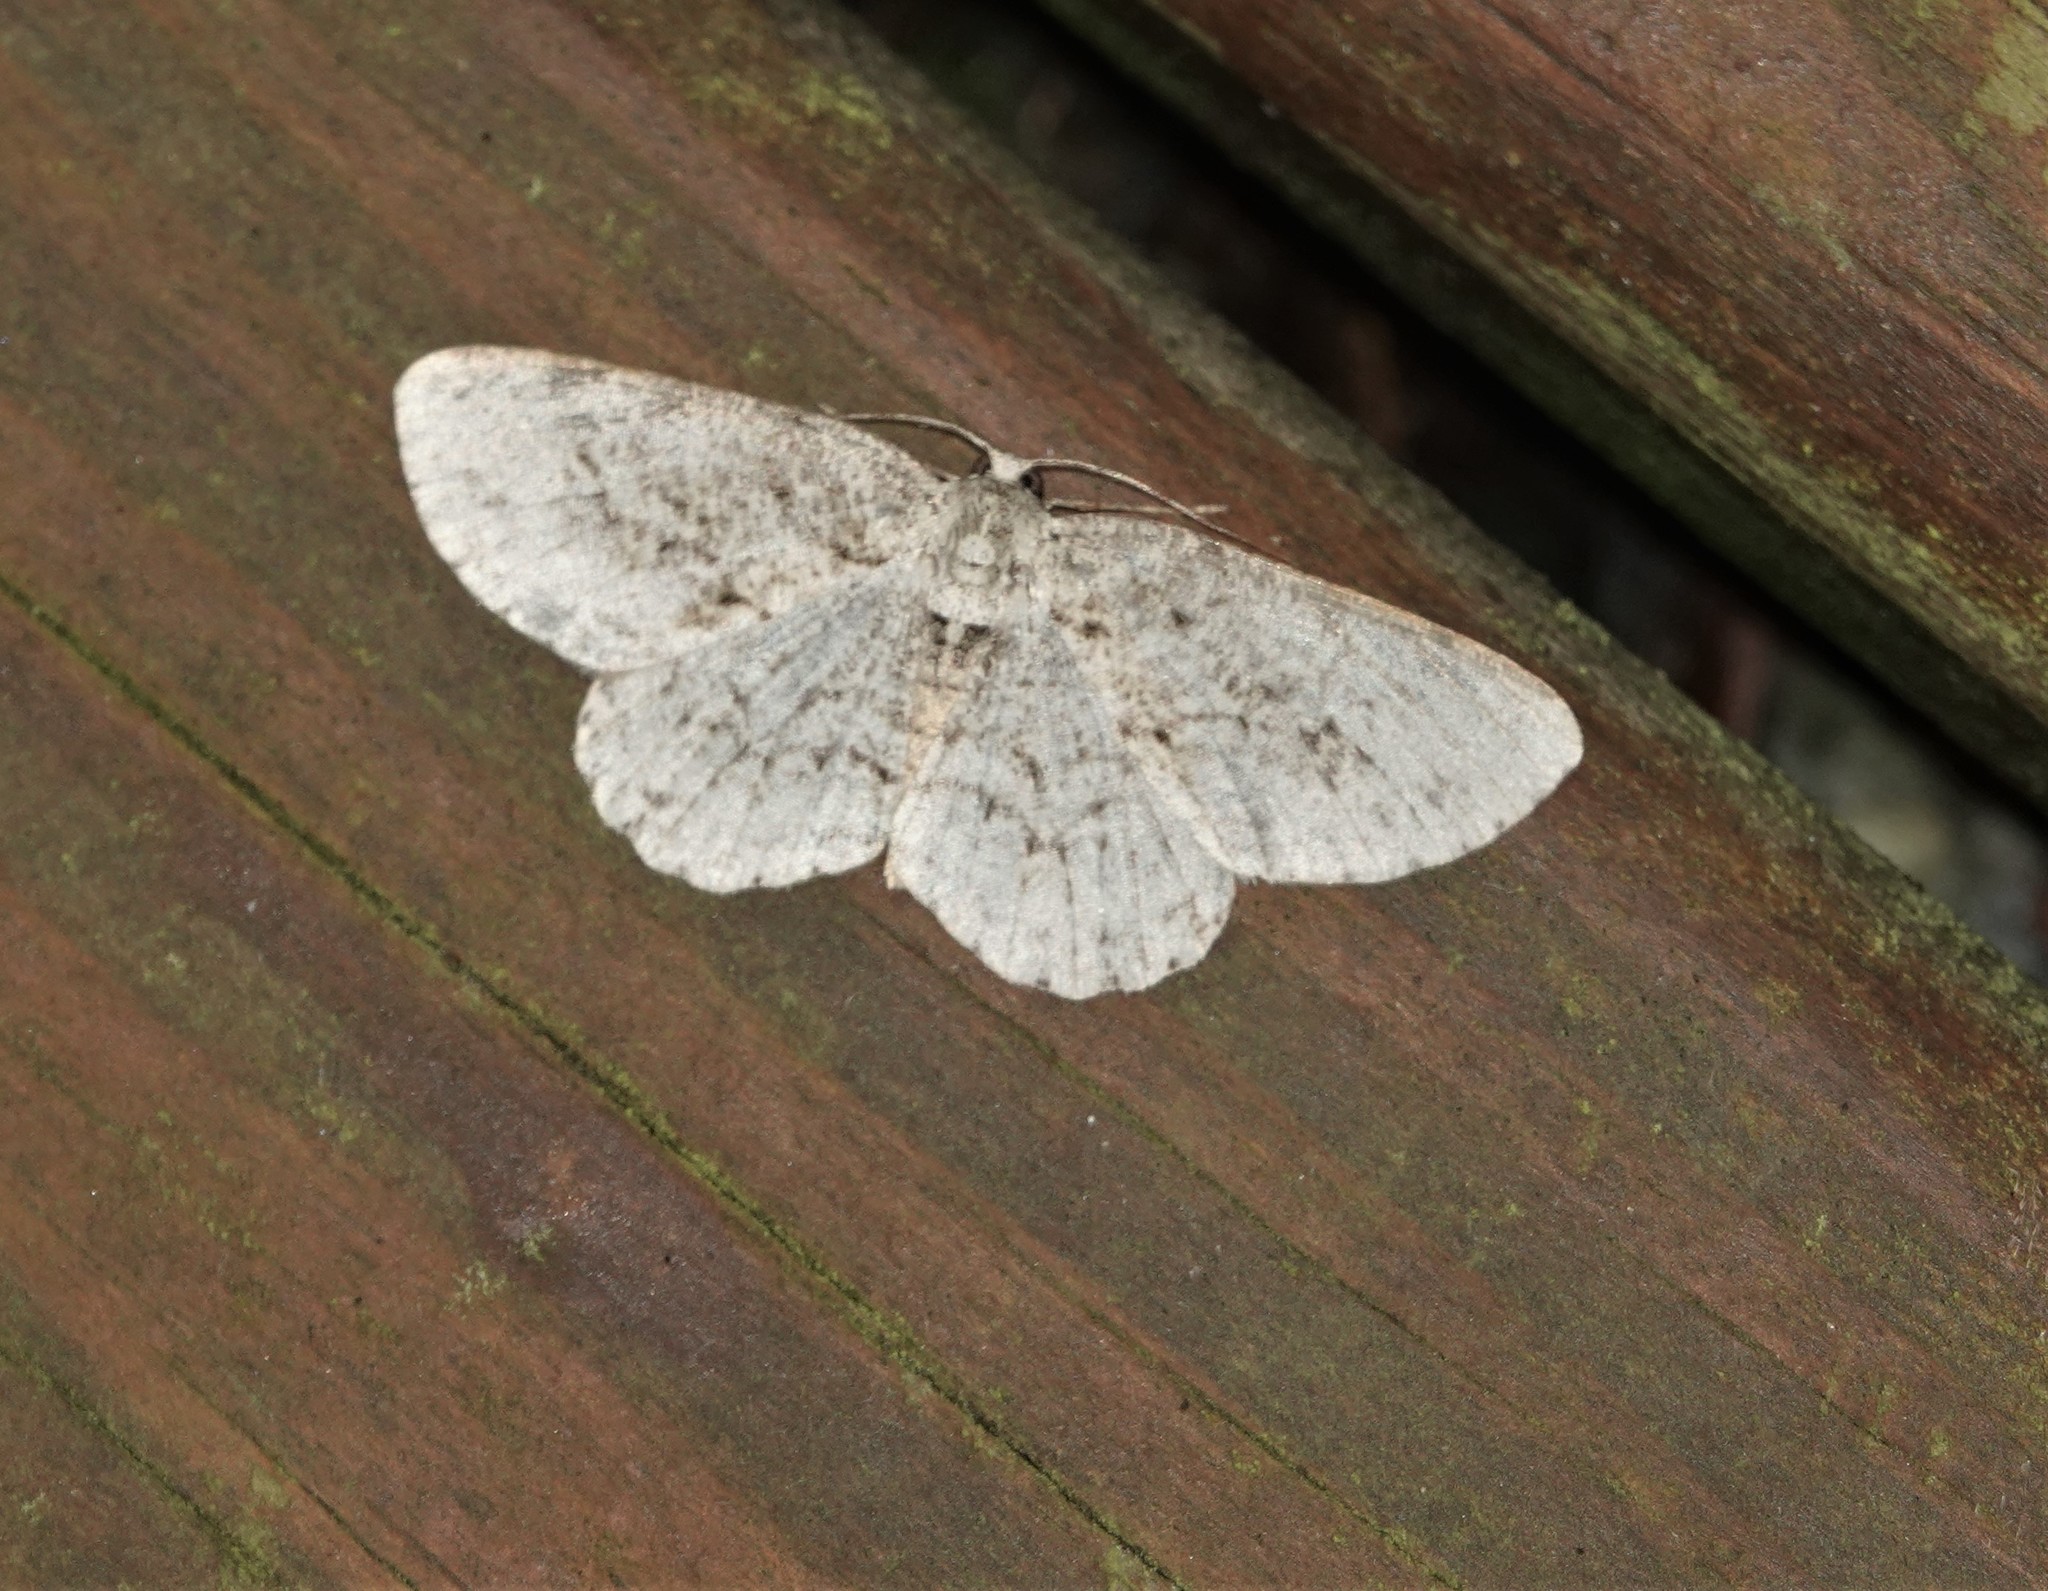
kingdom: Animalia
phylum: Arthropoda
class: Insecta
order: Lepidoptera
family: Geometridae
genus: Ectropis
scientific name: Ectropis crepuscularia
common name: Engrailed
